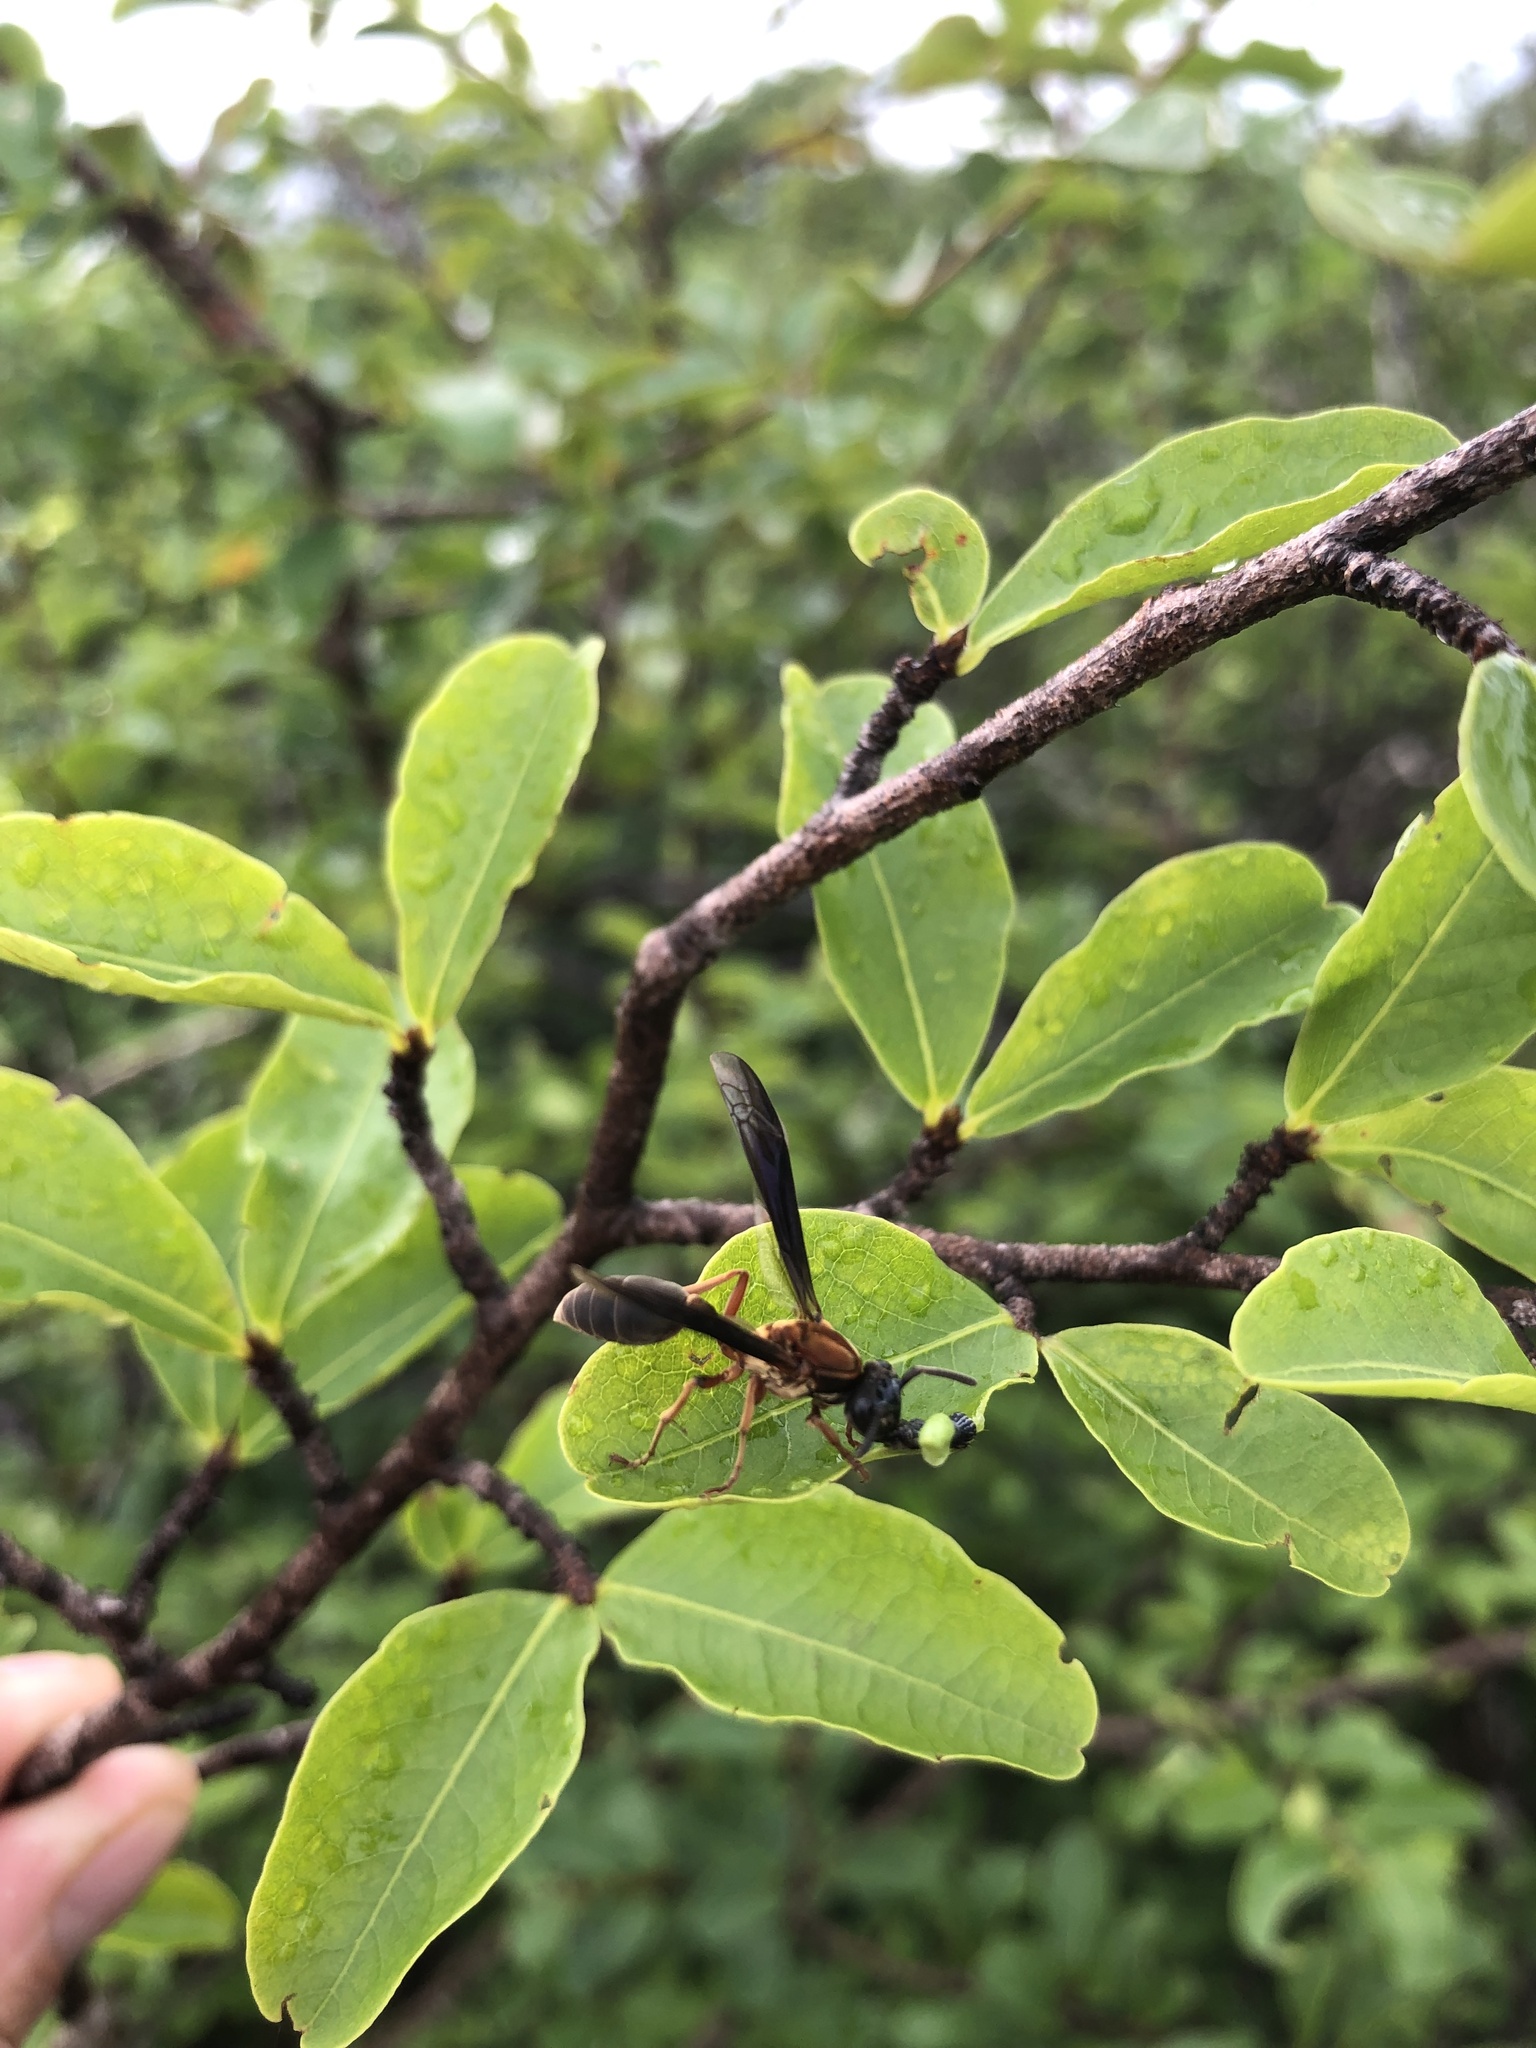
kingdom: Animalia
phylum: Arthropoda
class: Insecta
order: Hymenoptera
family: Eumenidae
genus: Polybia
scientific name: Polybia sericea
